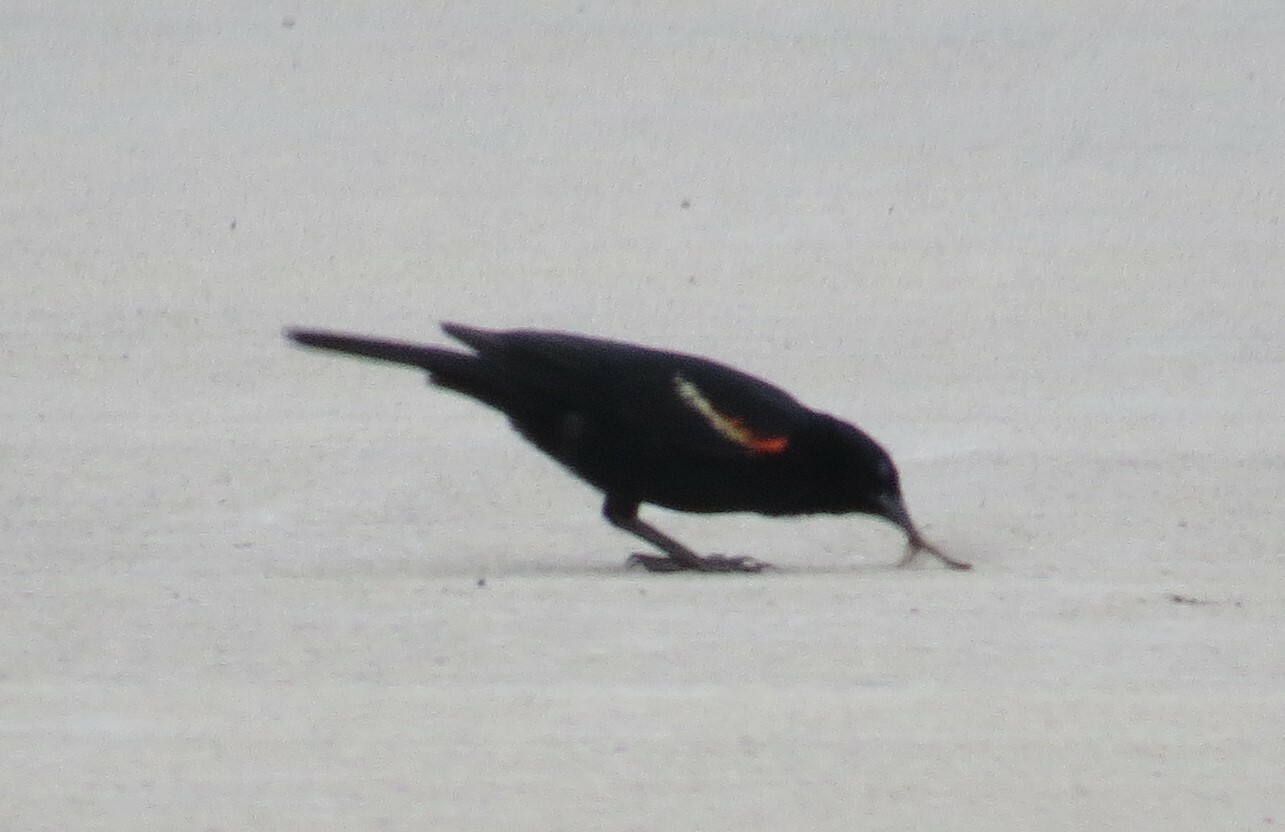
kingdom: Animalia
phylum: Chordata
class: Aves
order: Passeriformes
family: Icteridae
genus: Agelaius
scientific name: Agelaius phoeniceus
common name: Red-winged blackbird
